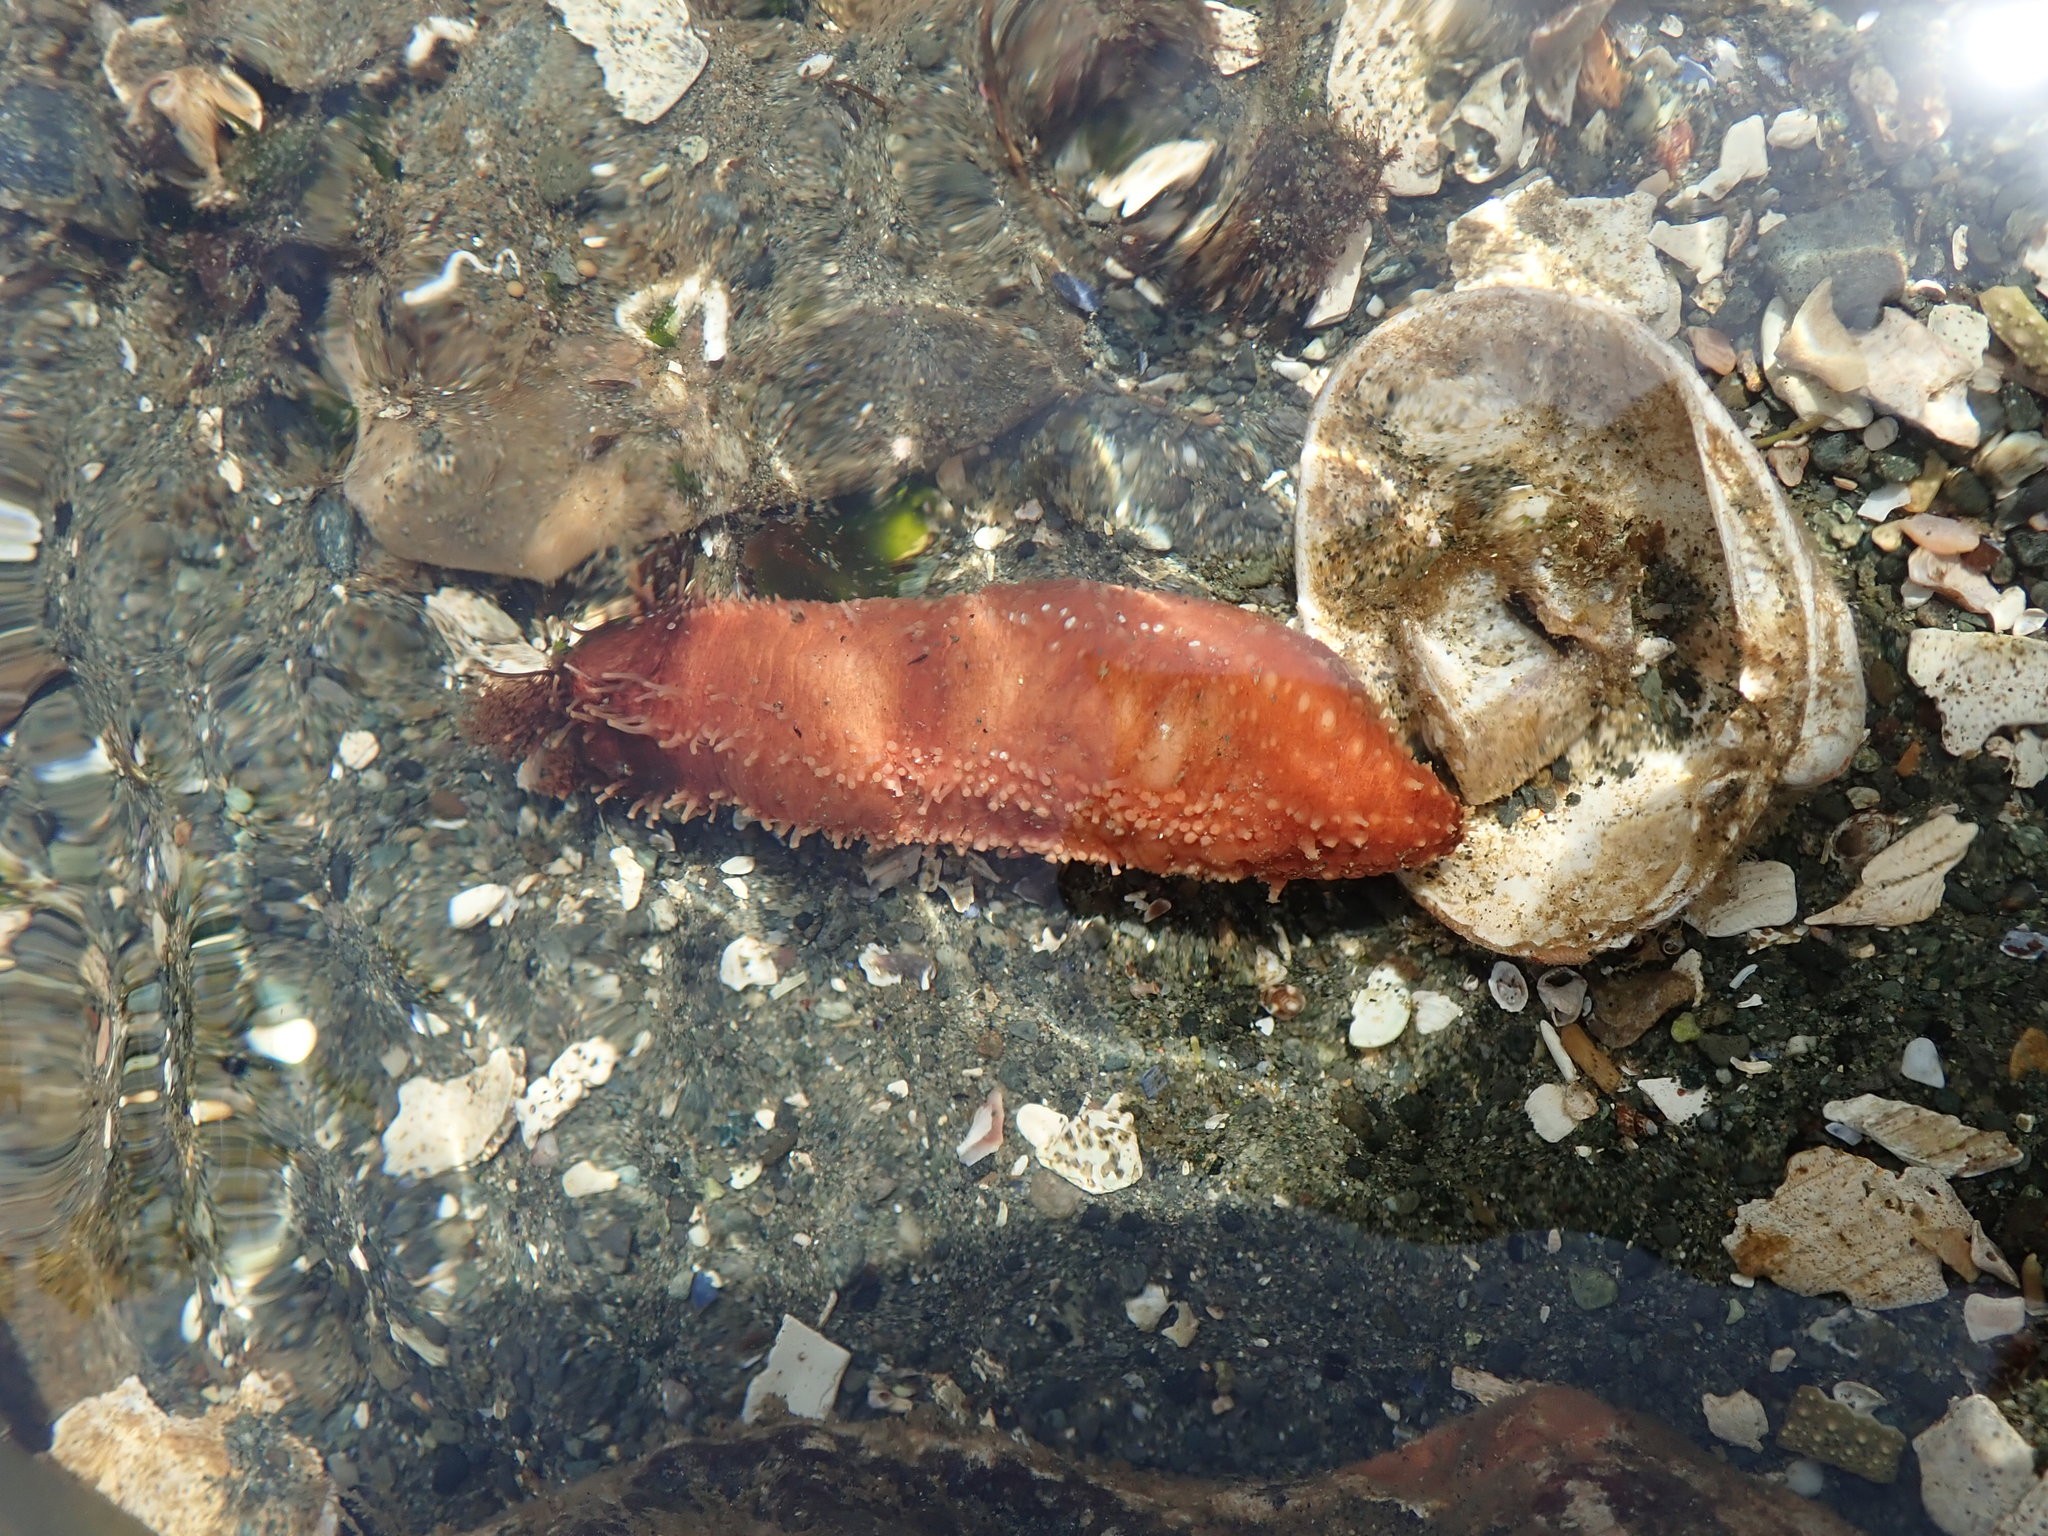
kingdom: Animalia
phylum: Echinodermata
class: Holothuroidea
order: Dendrochirotida
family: Cucumariidae
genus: Cucumaria
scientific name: Cucumaria miniata
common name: Orange sea cucumber
